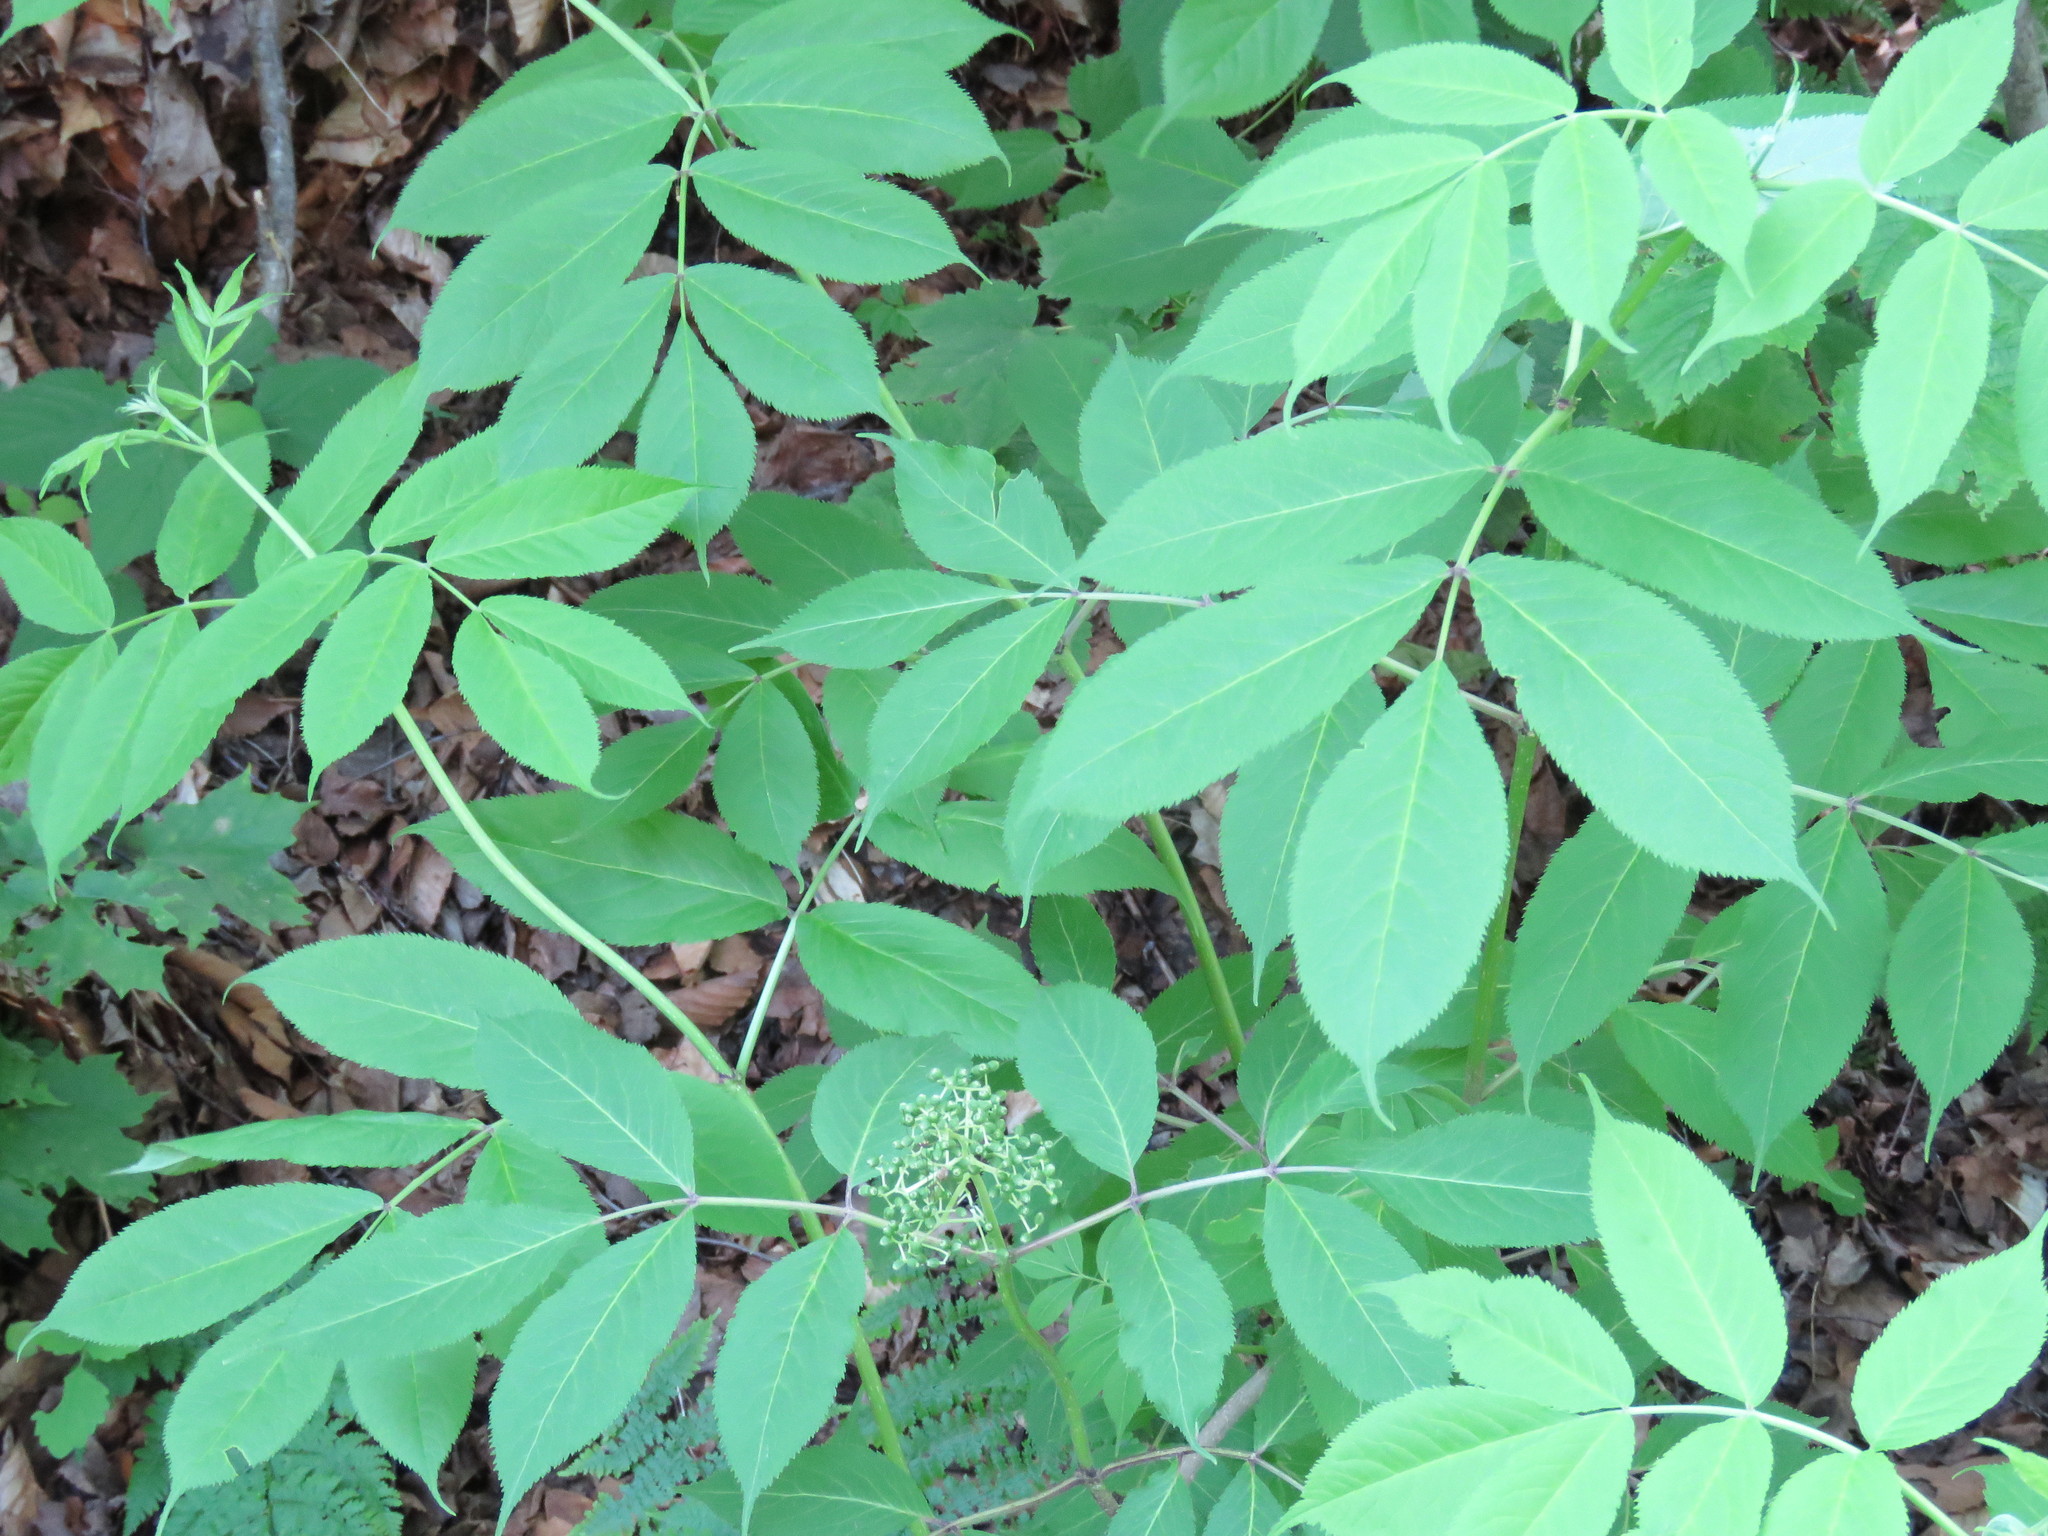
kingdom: Plantae
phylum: Tracheophyta
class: Magnoliopsida
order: Dipsacales
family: Viburnaceae
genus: Sambucus
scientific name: Sambucus racemosa
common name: Red-berried elder
